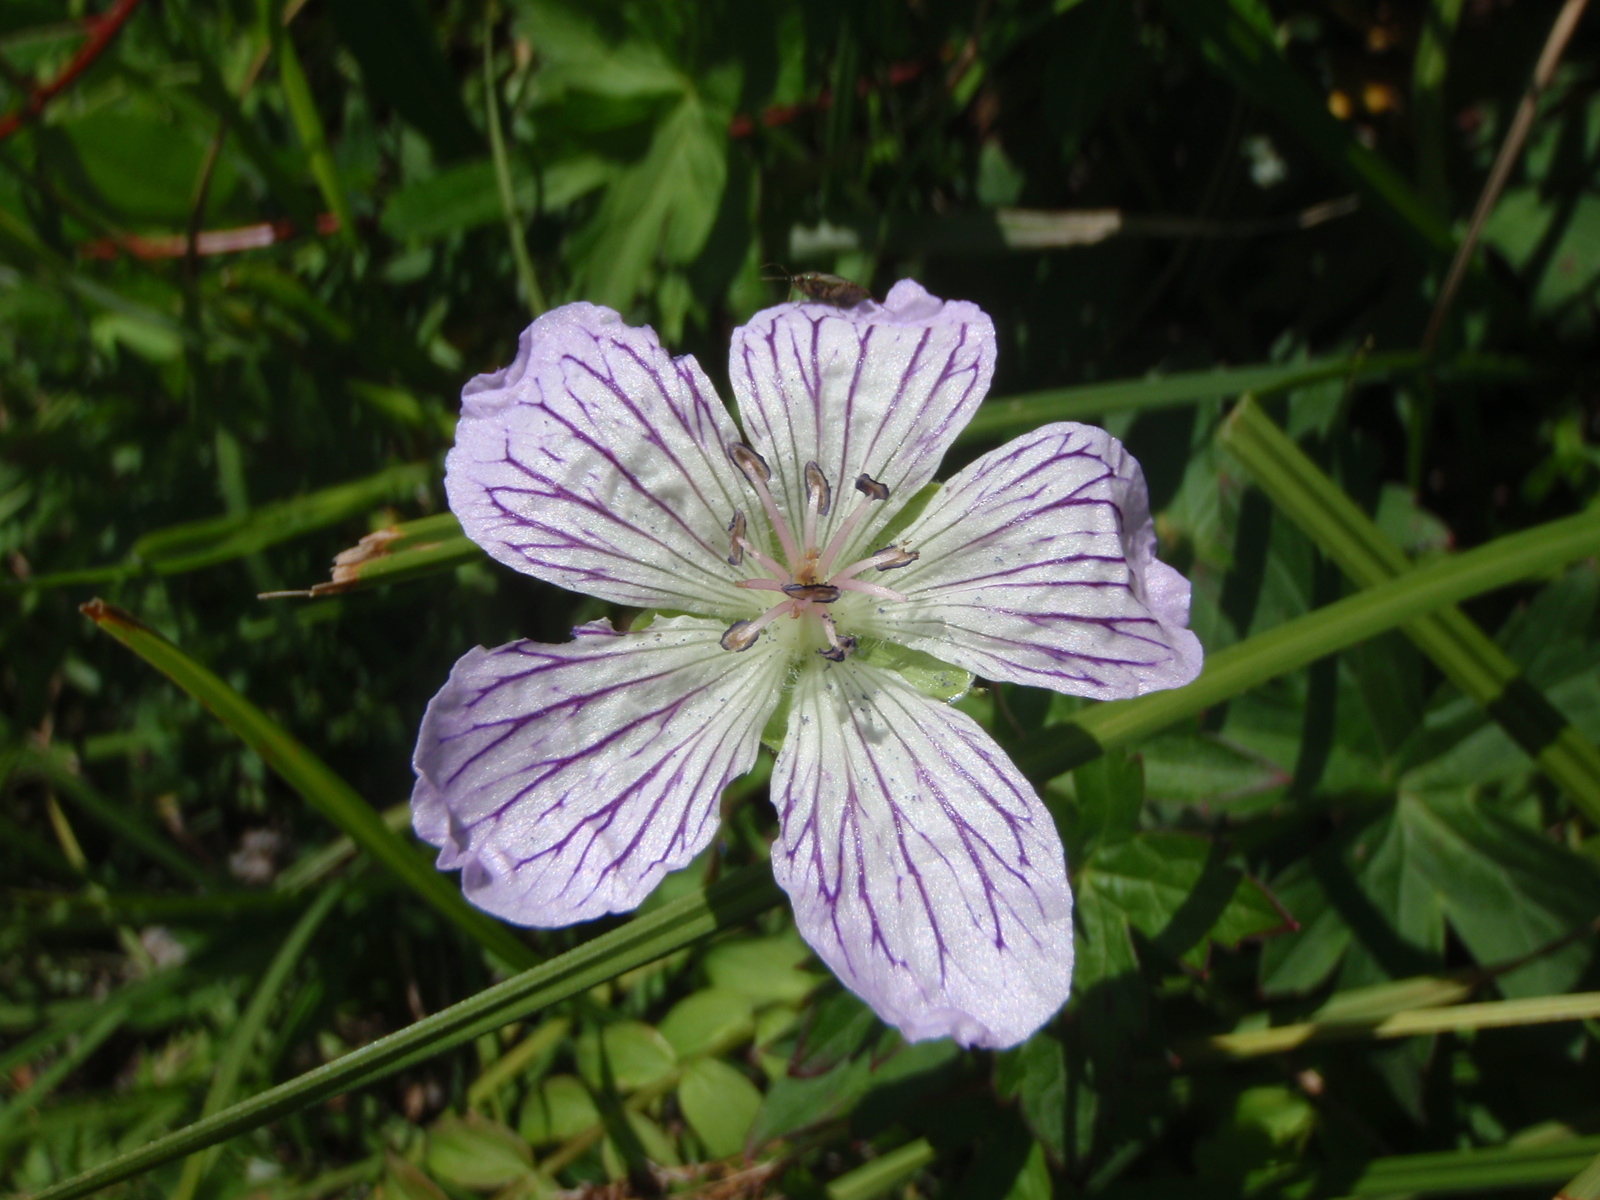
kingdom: Plantae
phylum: Tracheophyta
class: Magnoliopsida
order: Geraniales
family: Geraniaceae
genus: Geranium
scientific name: Geranium wlassovianum
